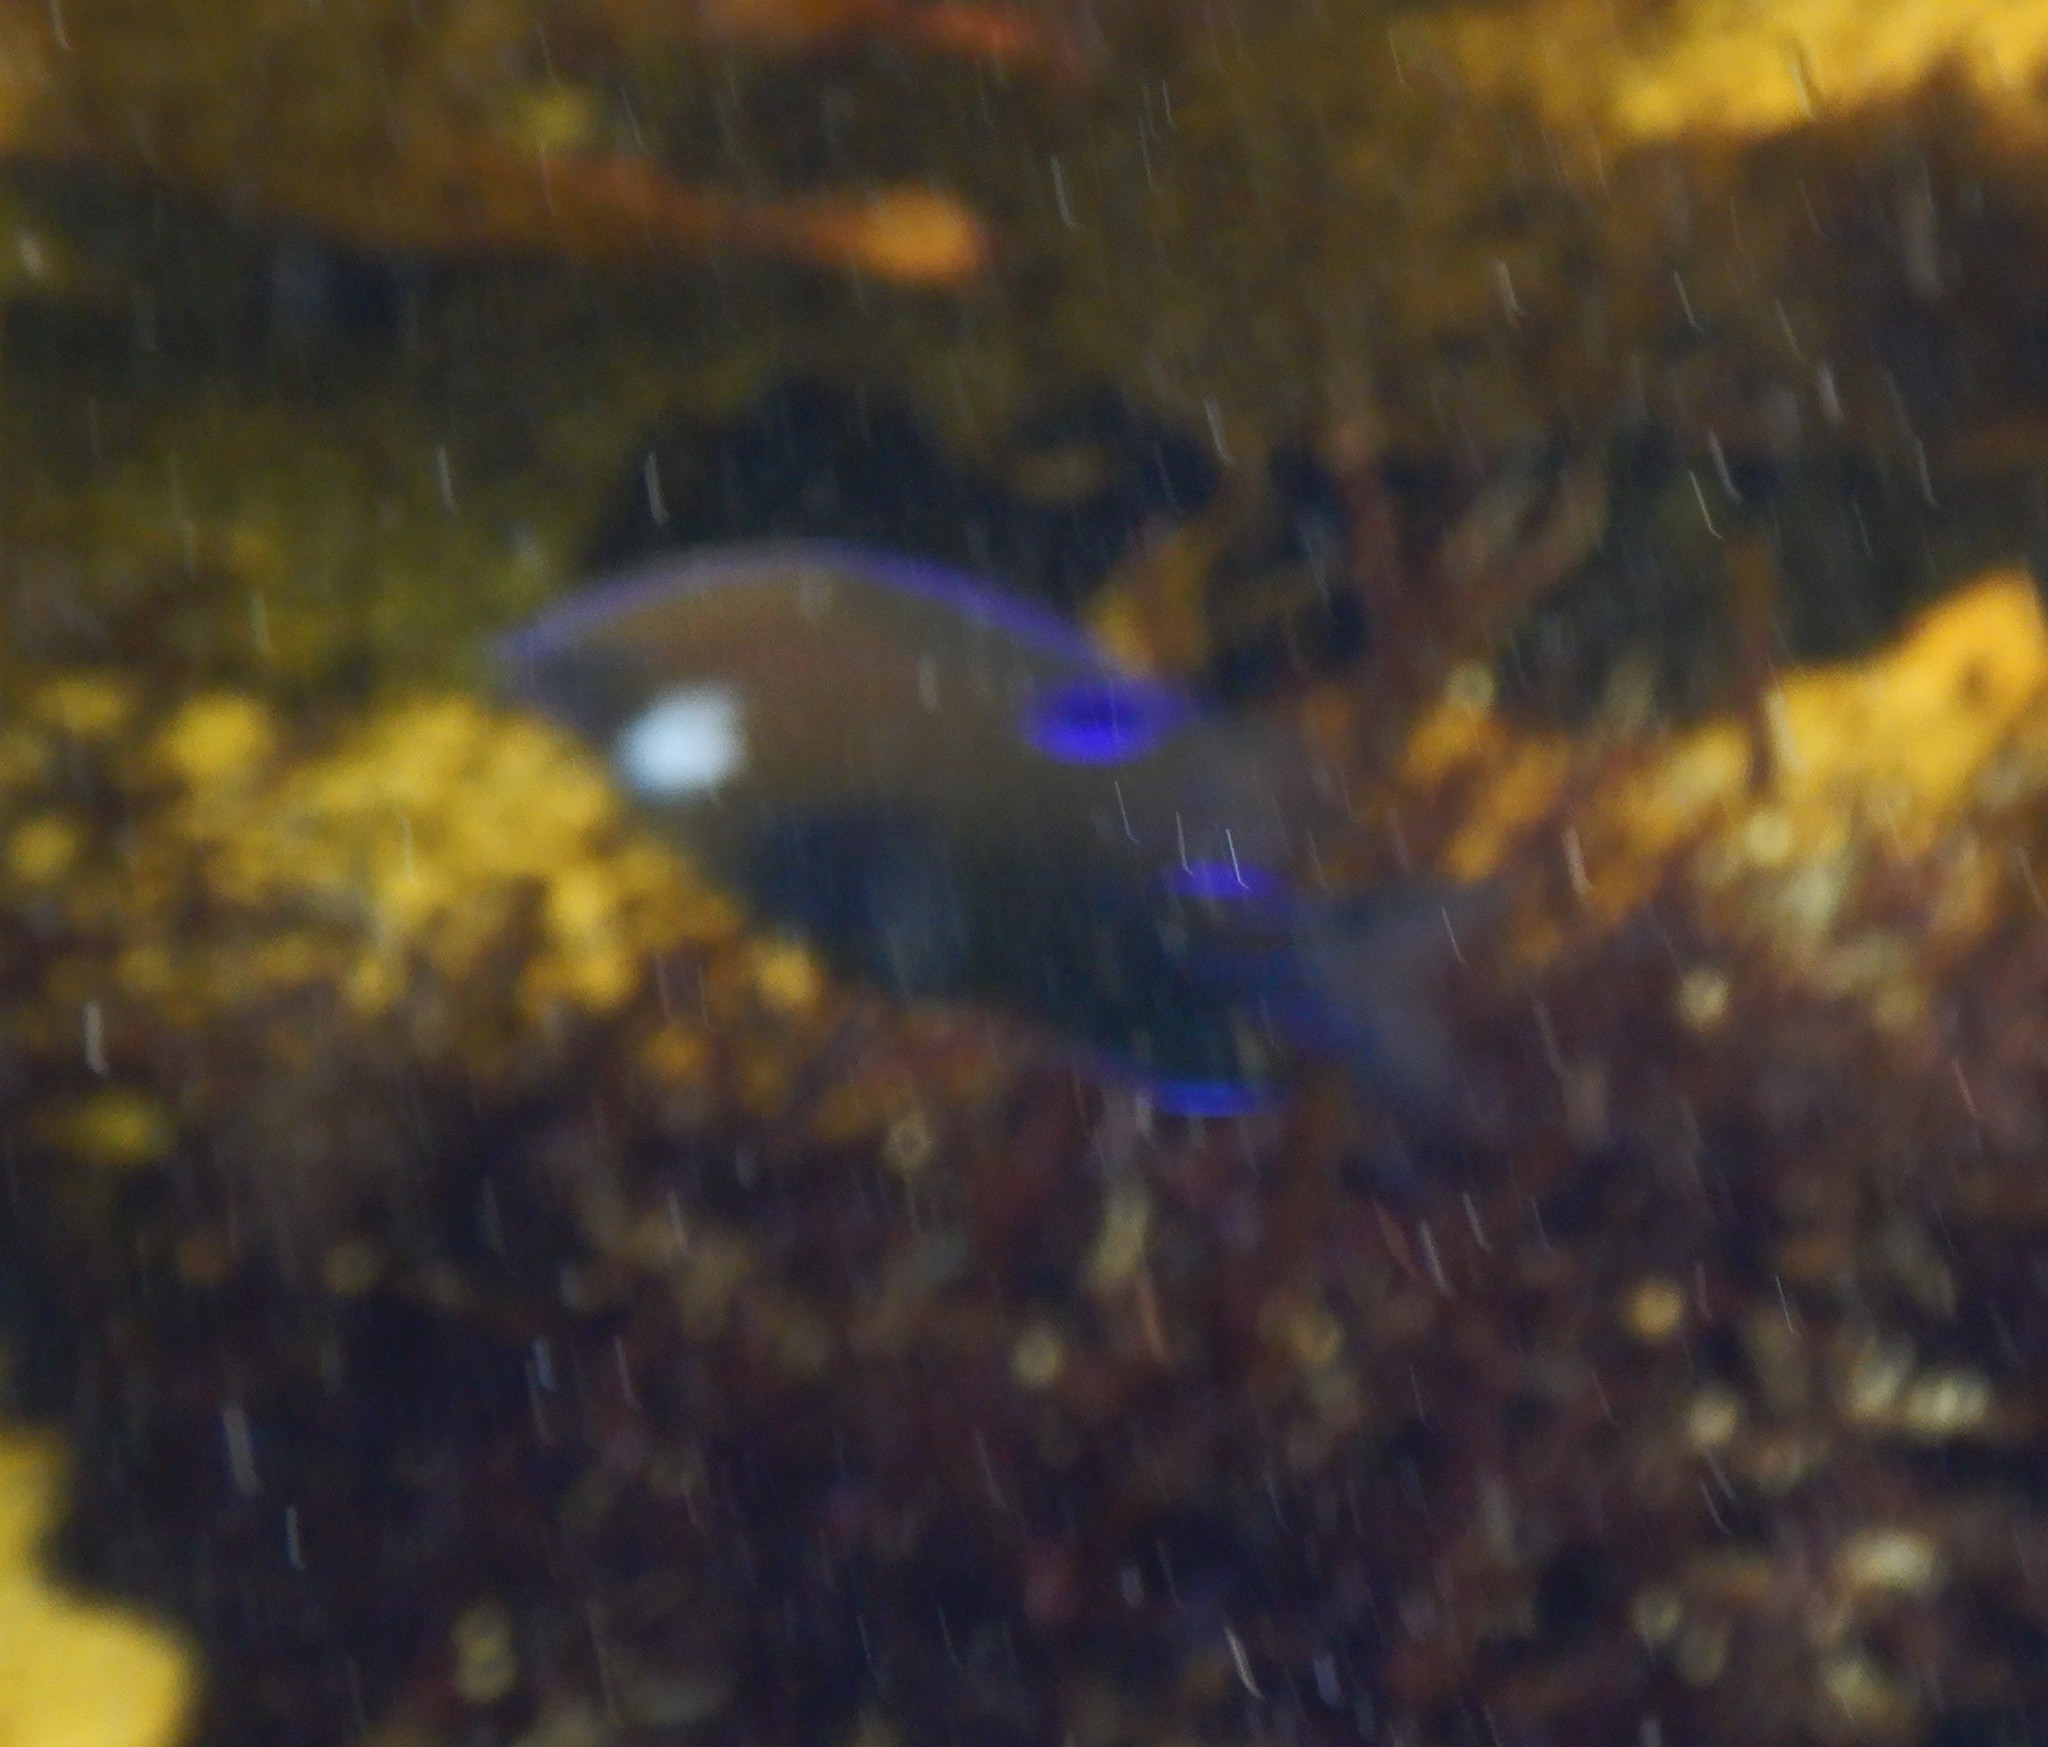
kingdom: Animalia
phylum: Chordata
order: Perciformes
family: Pomacentridae
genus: Parma
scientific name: Parma microlepis
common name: White-ear
